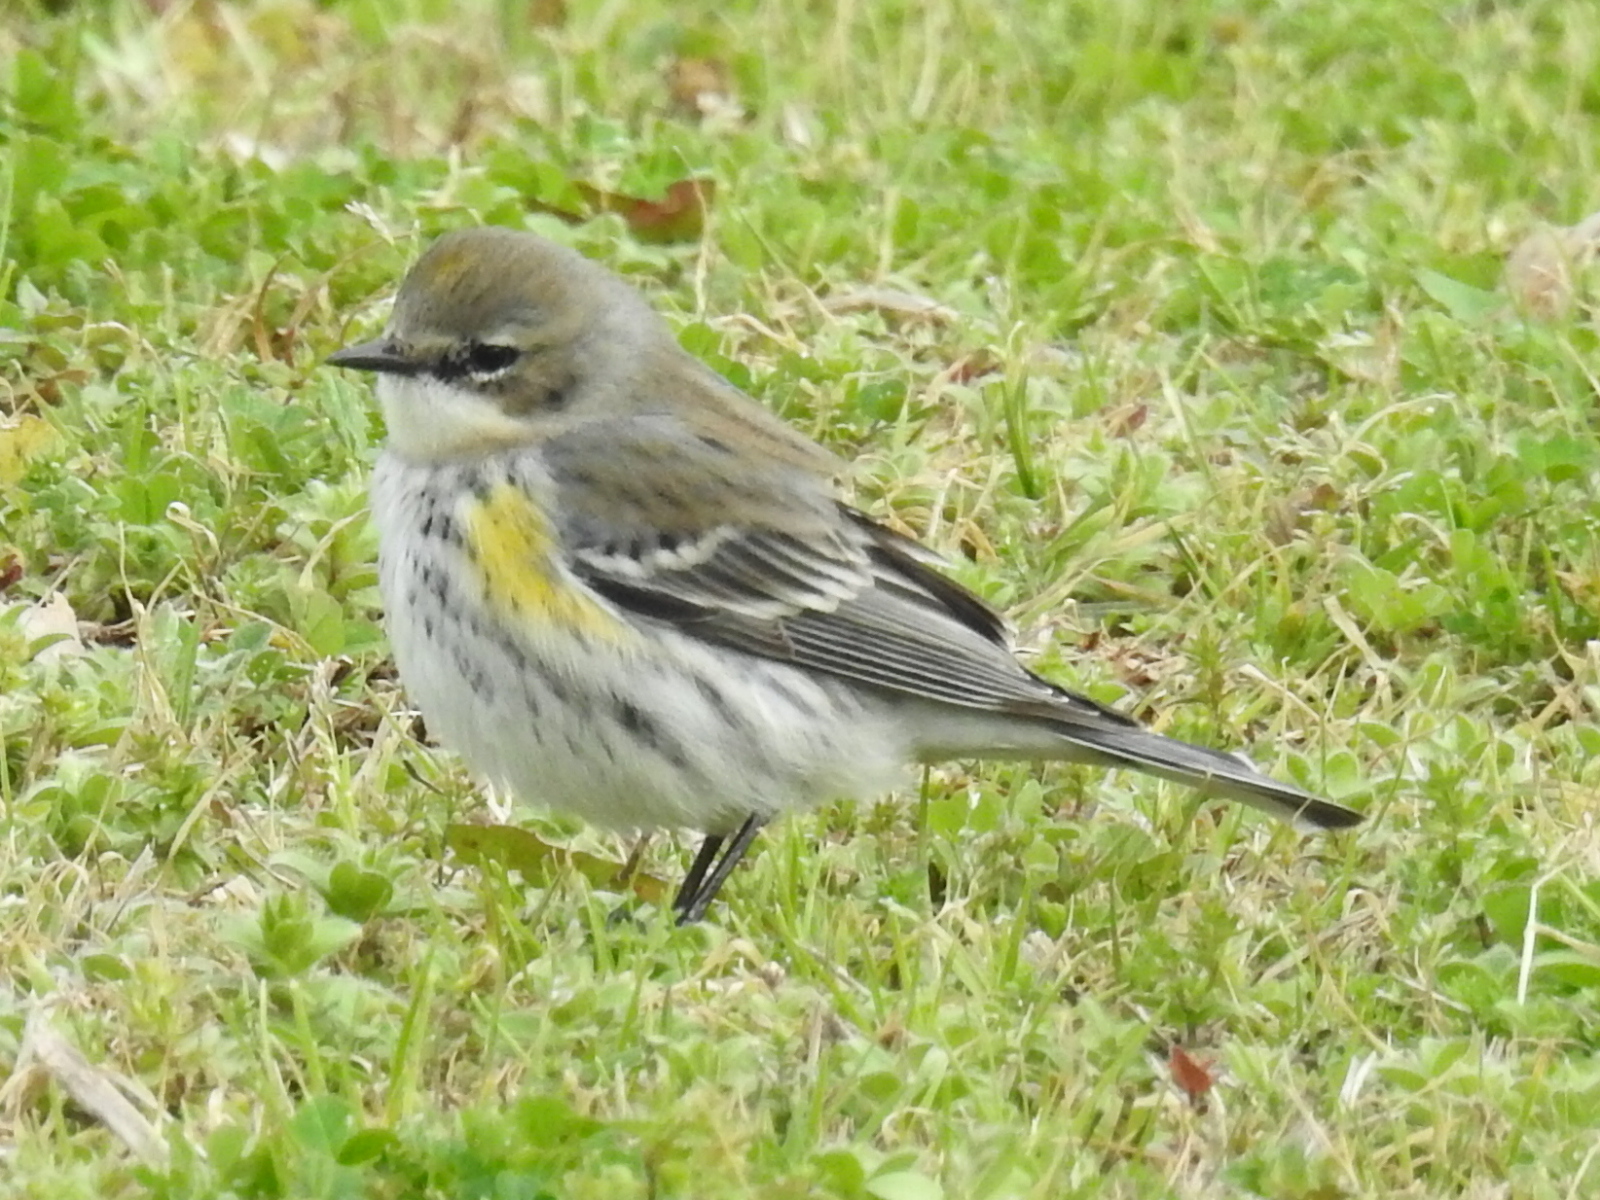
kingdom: Animalia
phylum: Chordata
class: Aves
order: Passeriformes
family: Parulidae
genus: Setophaga
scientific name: Setophaga coronata
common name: Myrtle warbler
